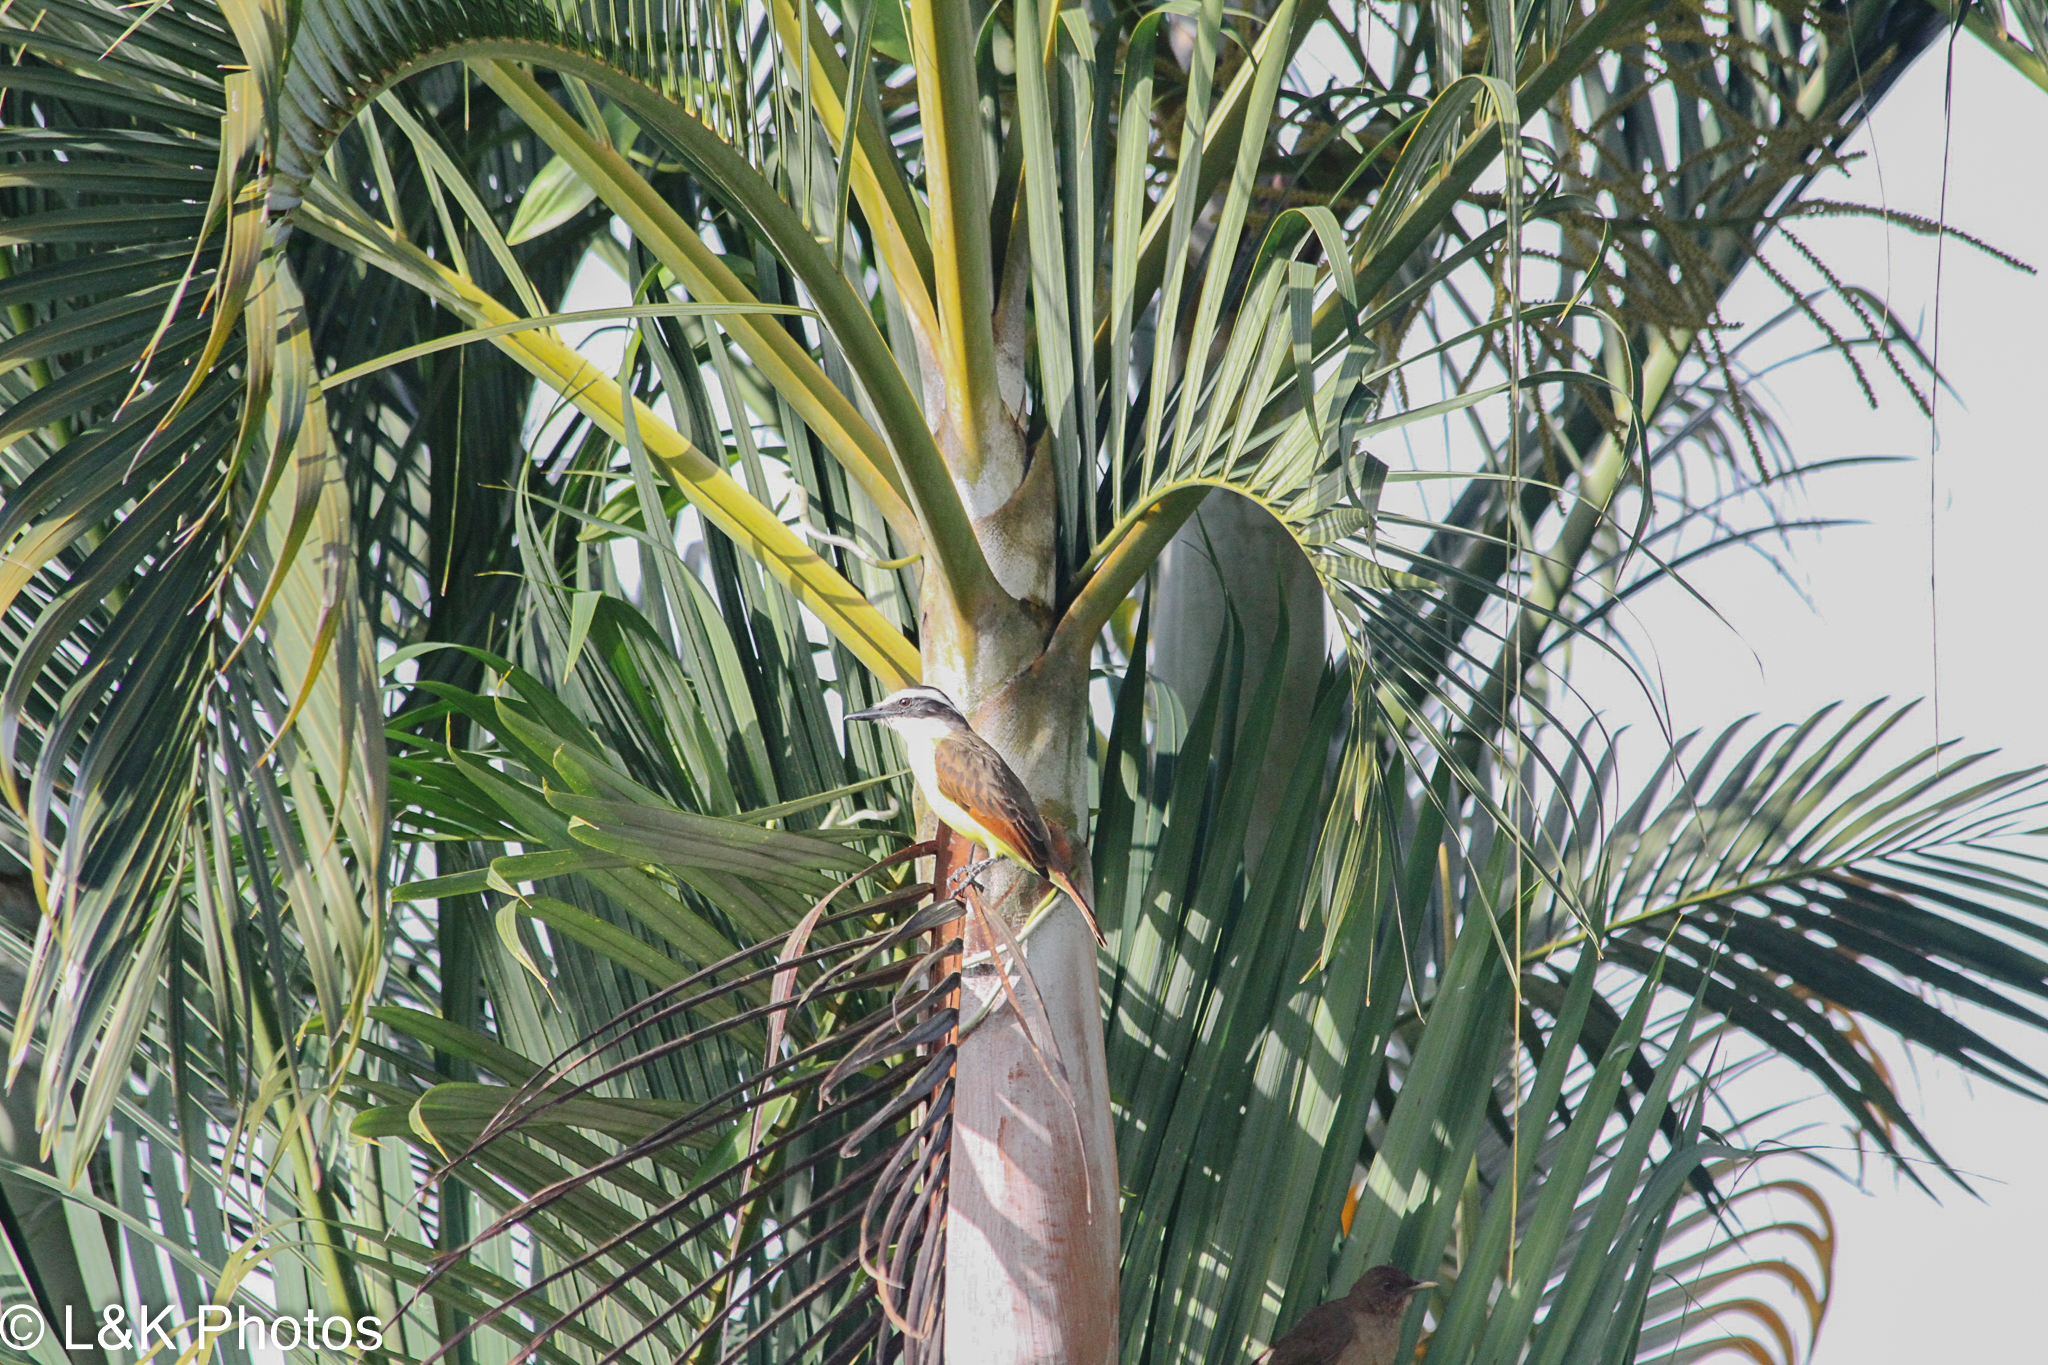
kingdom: Animalia
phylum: Chordata
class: Aves
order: Passeriformes
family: Tyrannidae
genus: Pitangus
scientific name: Pitangus sulphuratus
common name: Great kiskadee
